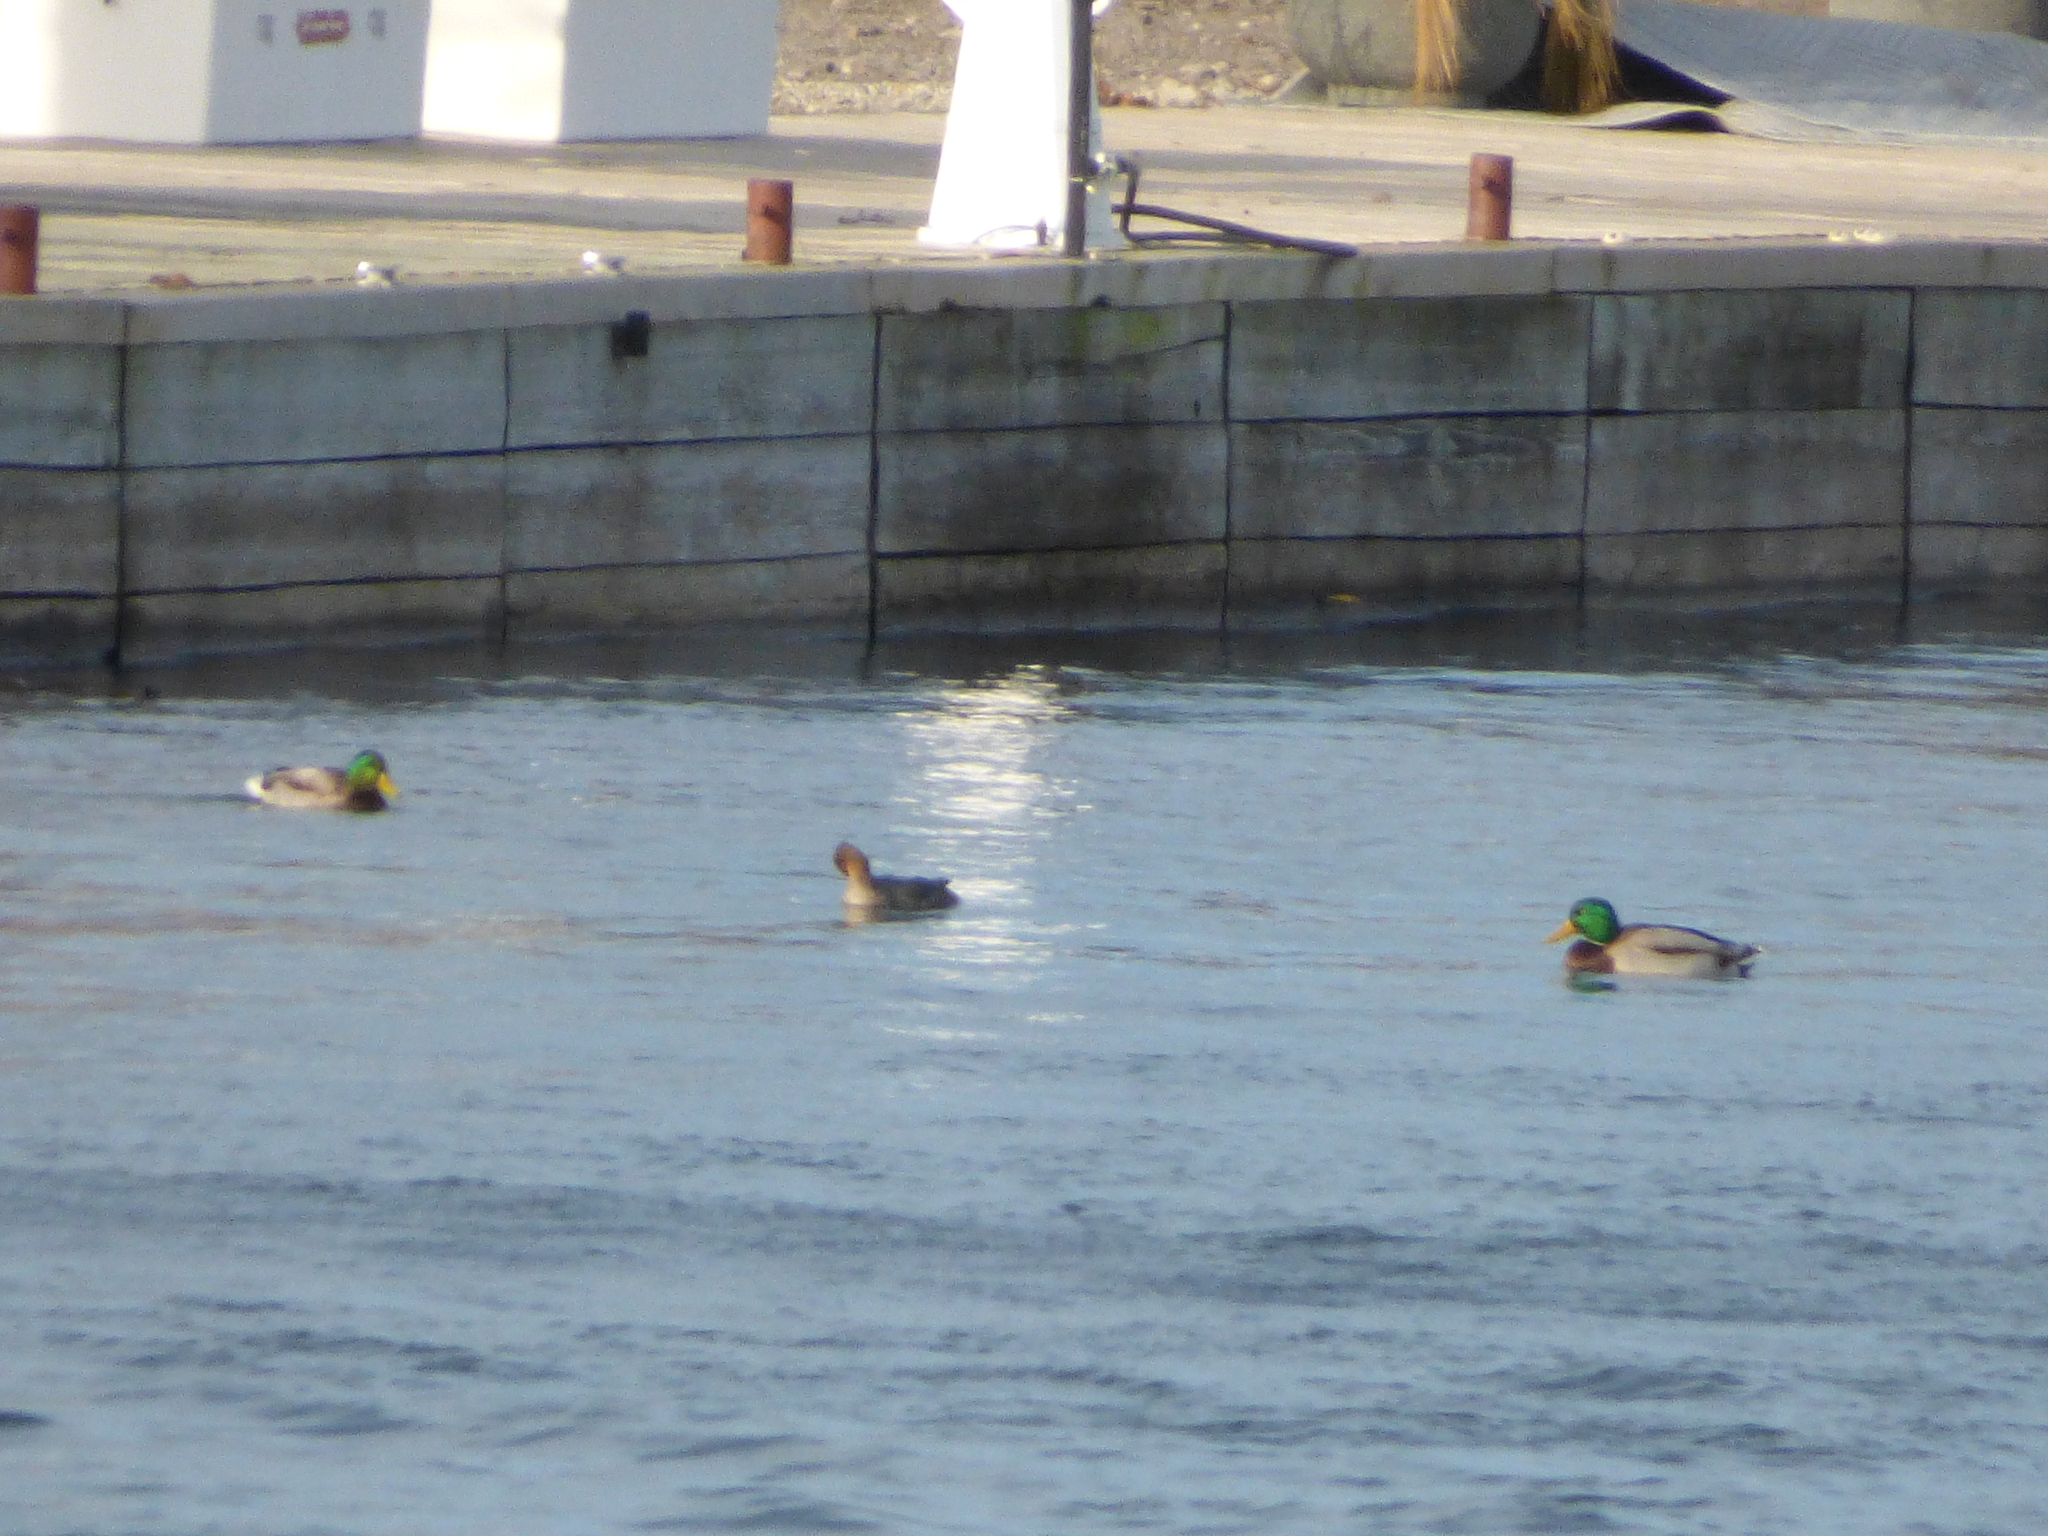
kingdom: Animalia
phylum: Chordata
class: Aves
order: Anseriformes
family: Anatidae
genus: Mergus
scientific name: Mergus serrator
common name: Red-breasted merganser
